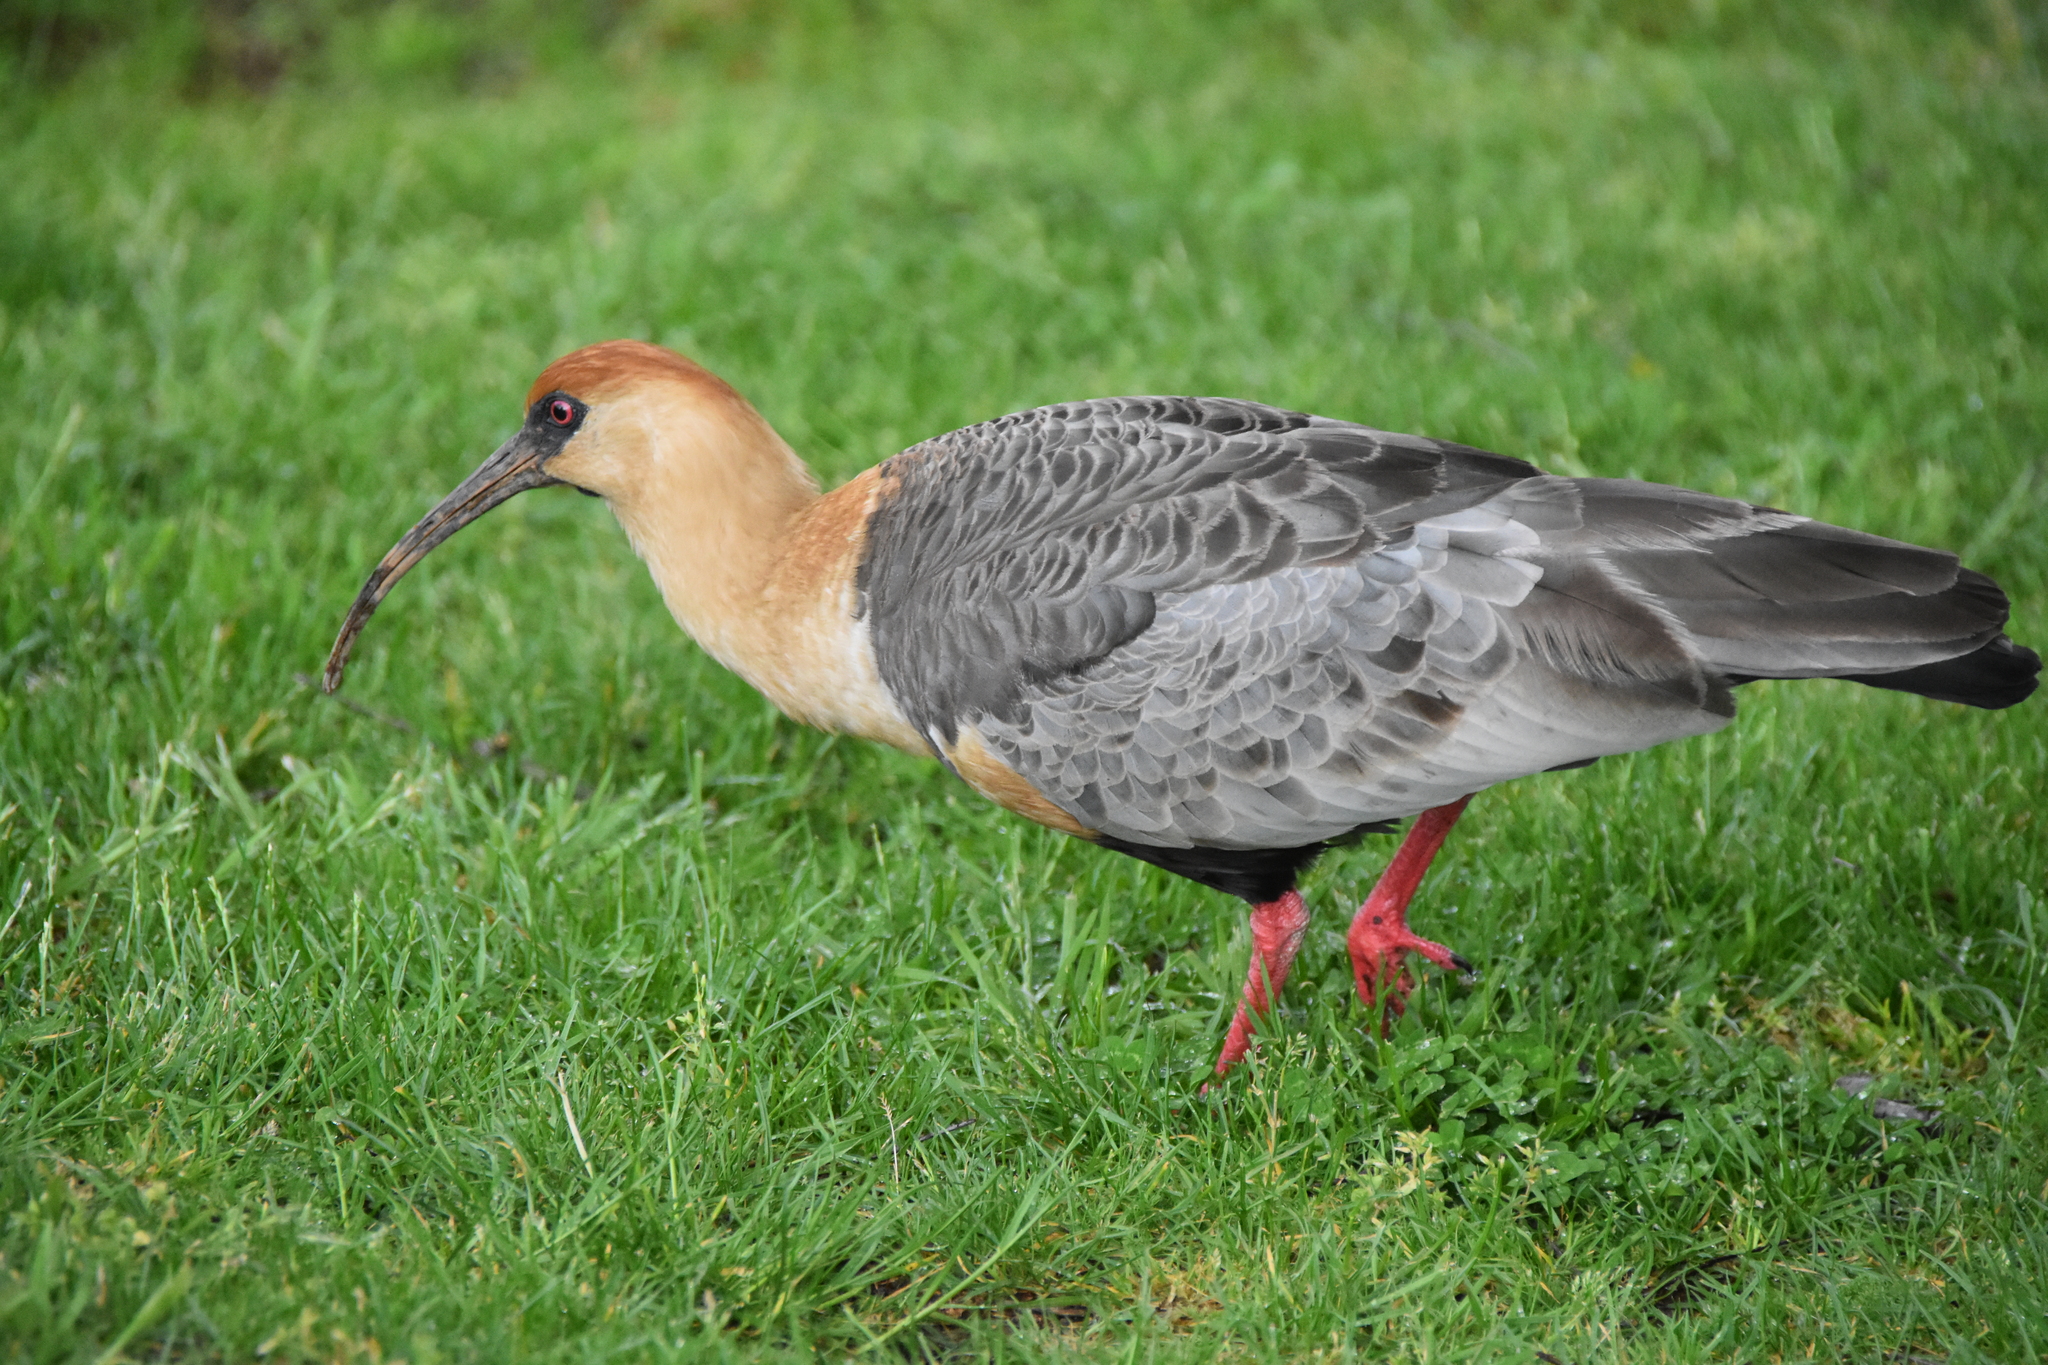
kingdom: Animalia
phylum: Chordata
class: Aves
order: Pelecaniformes
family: Threskiornithidae
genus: Theristicus
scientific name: Theristicus melanopis
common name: Black-faced ibis
